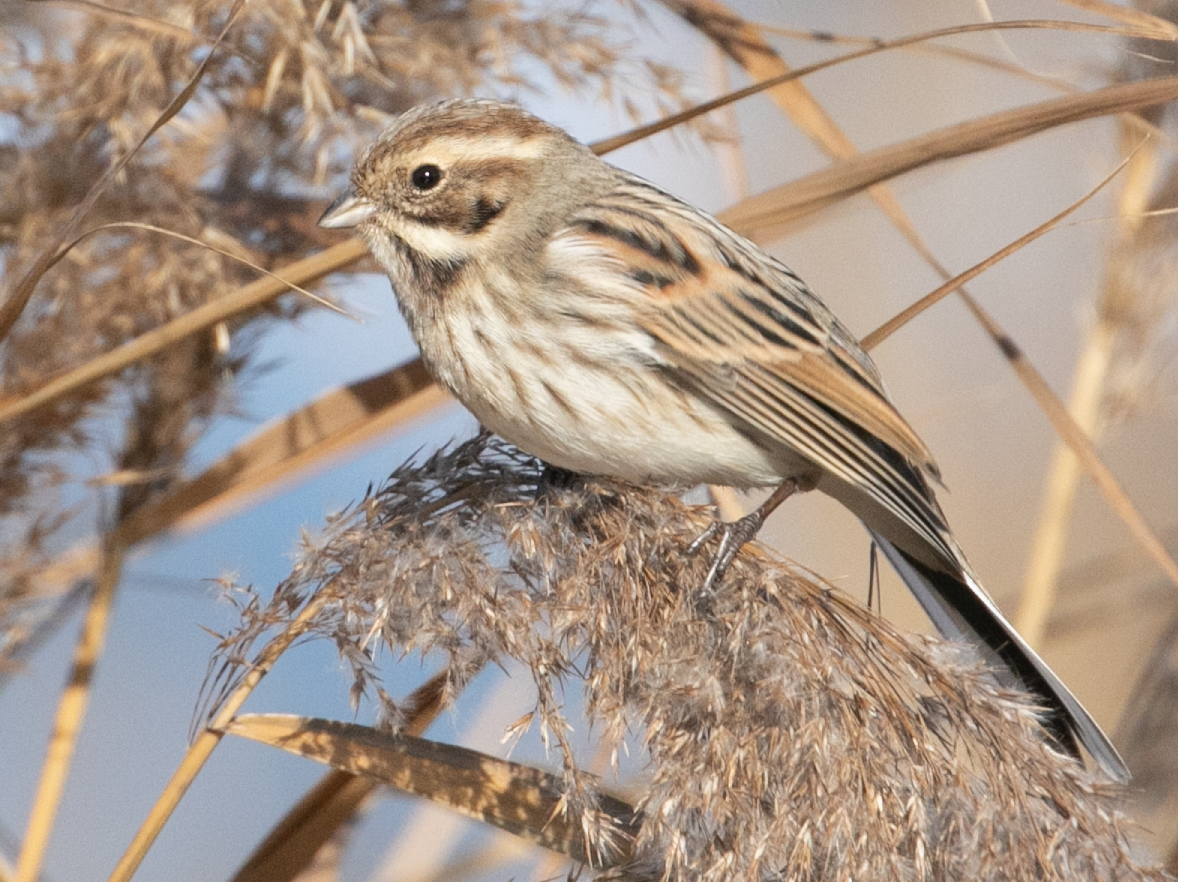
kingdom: Animalia
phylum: Chordata
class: Aves
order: Passeriformes
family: Emberizidae
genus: Emberiza
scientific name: Emberiza schoeniclus
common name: Reed bunting
